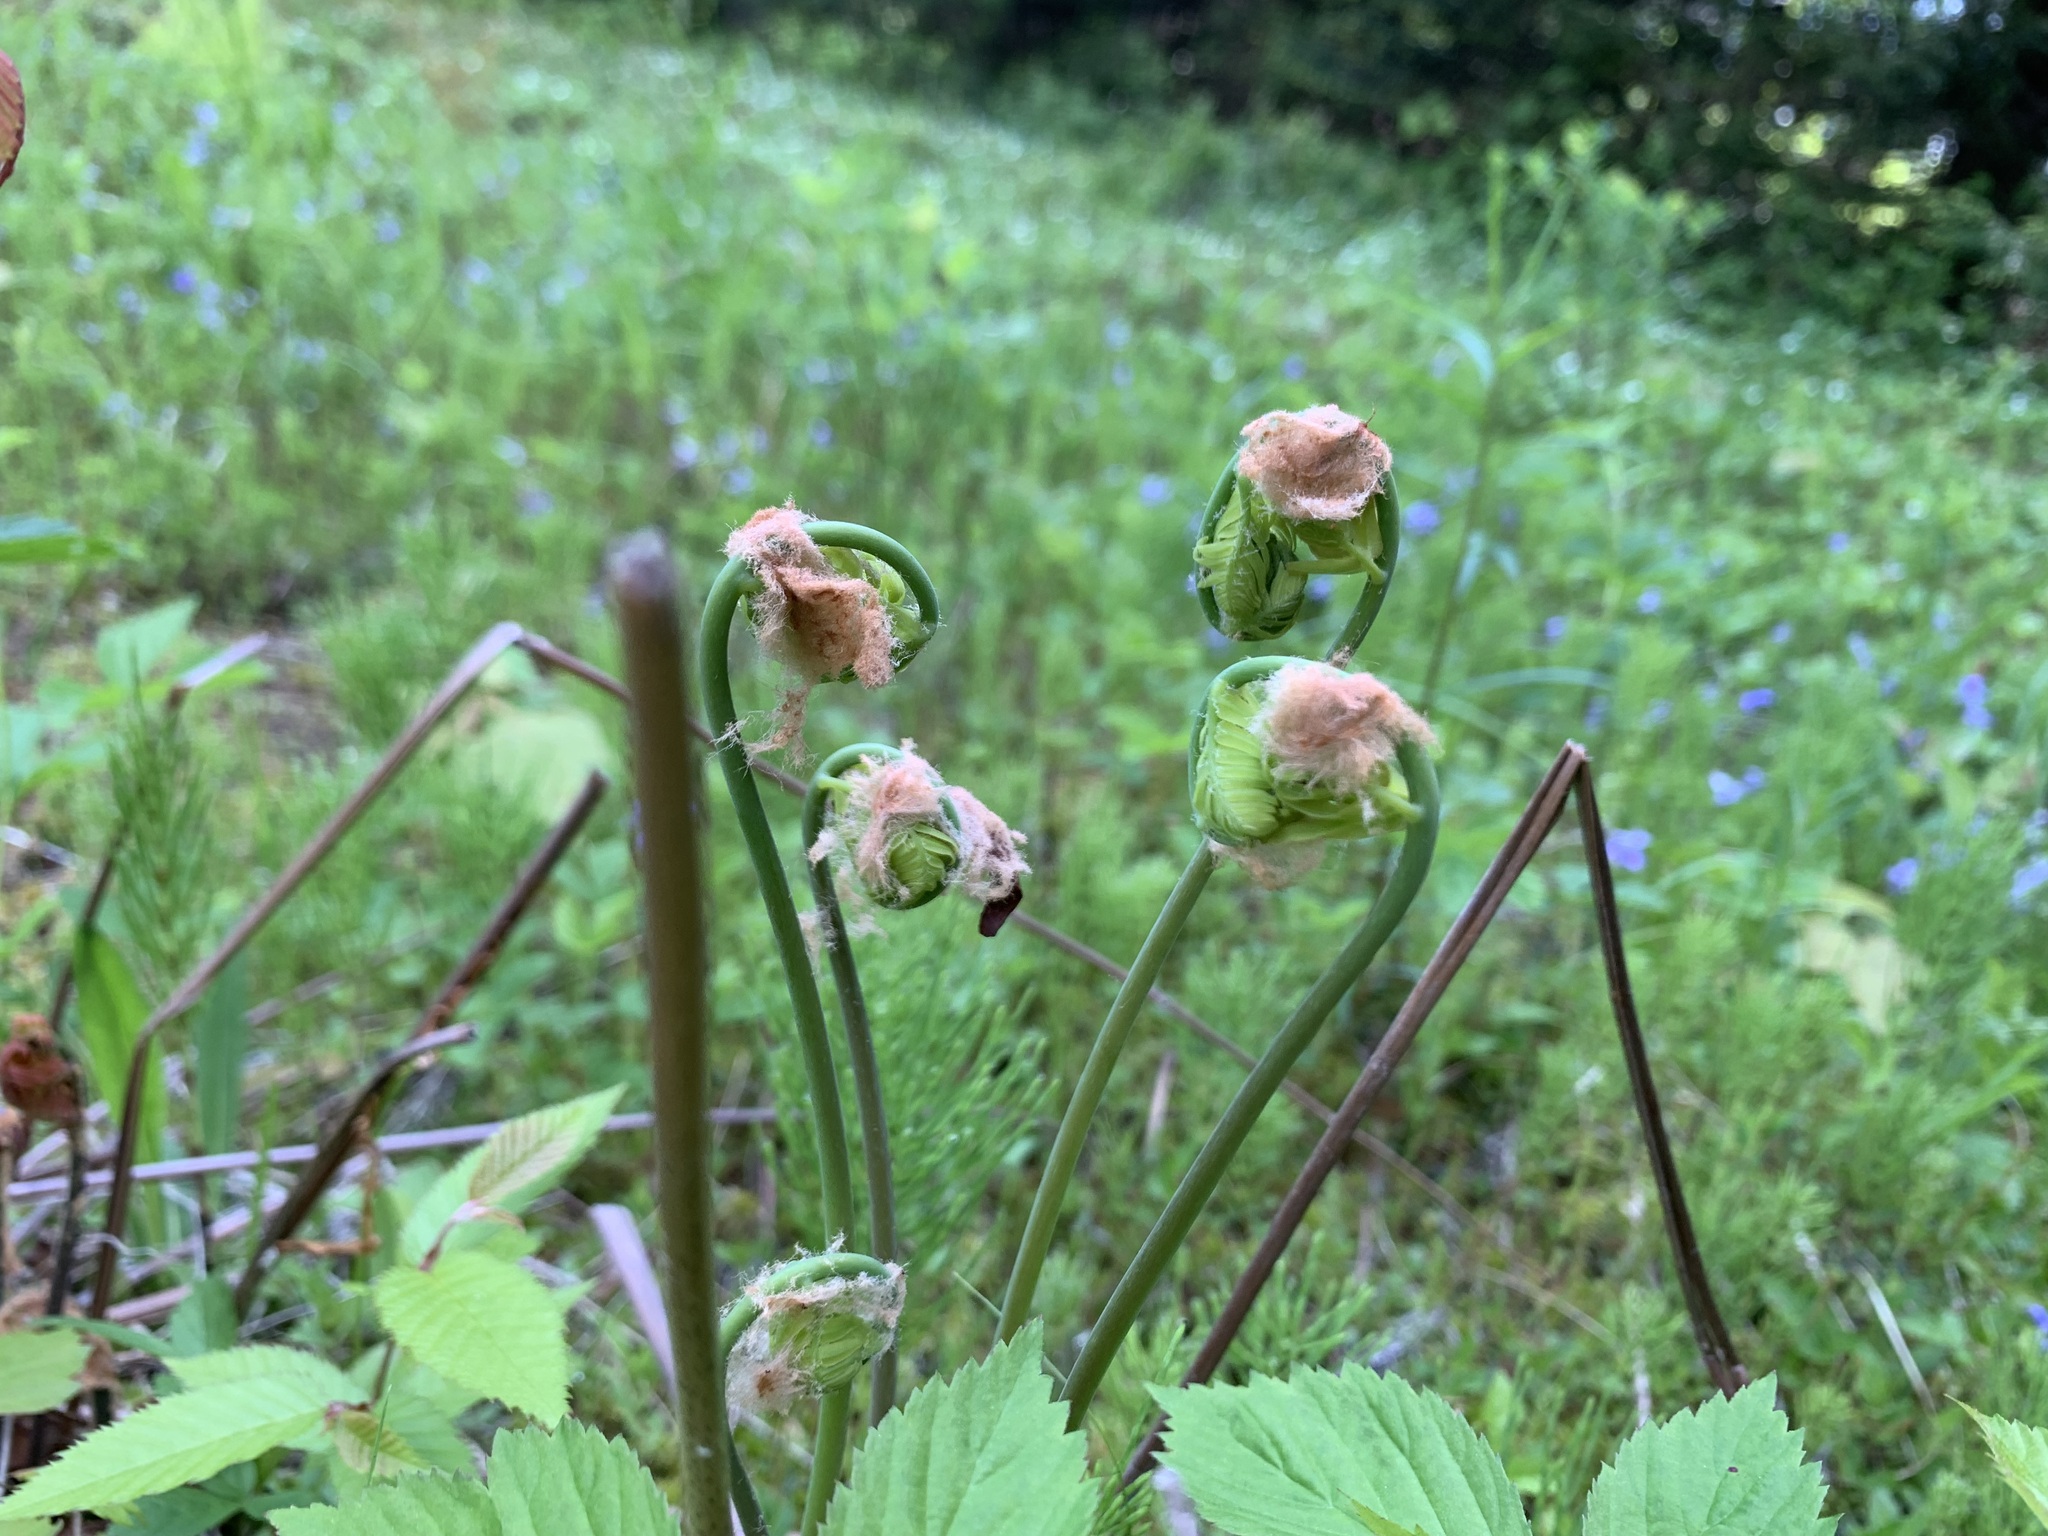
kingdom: Plantae
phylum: Tracheophyta
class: Polypodiopsida
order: Osmundales
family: Osmundaceae
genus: Osmunda
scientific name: Osmunda spectabilis
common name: American royal fern
